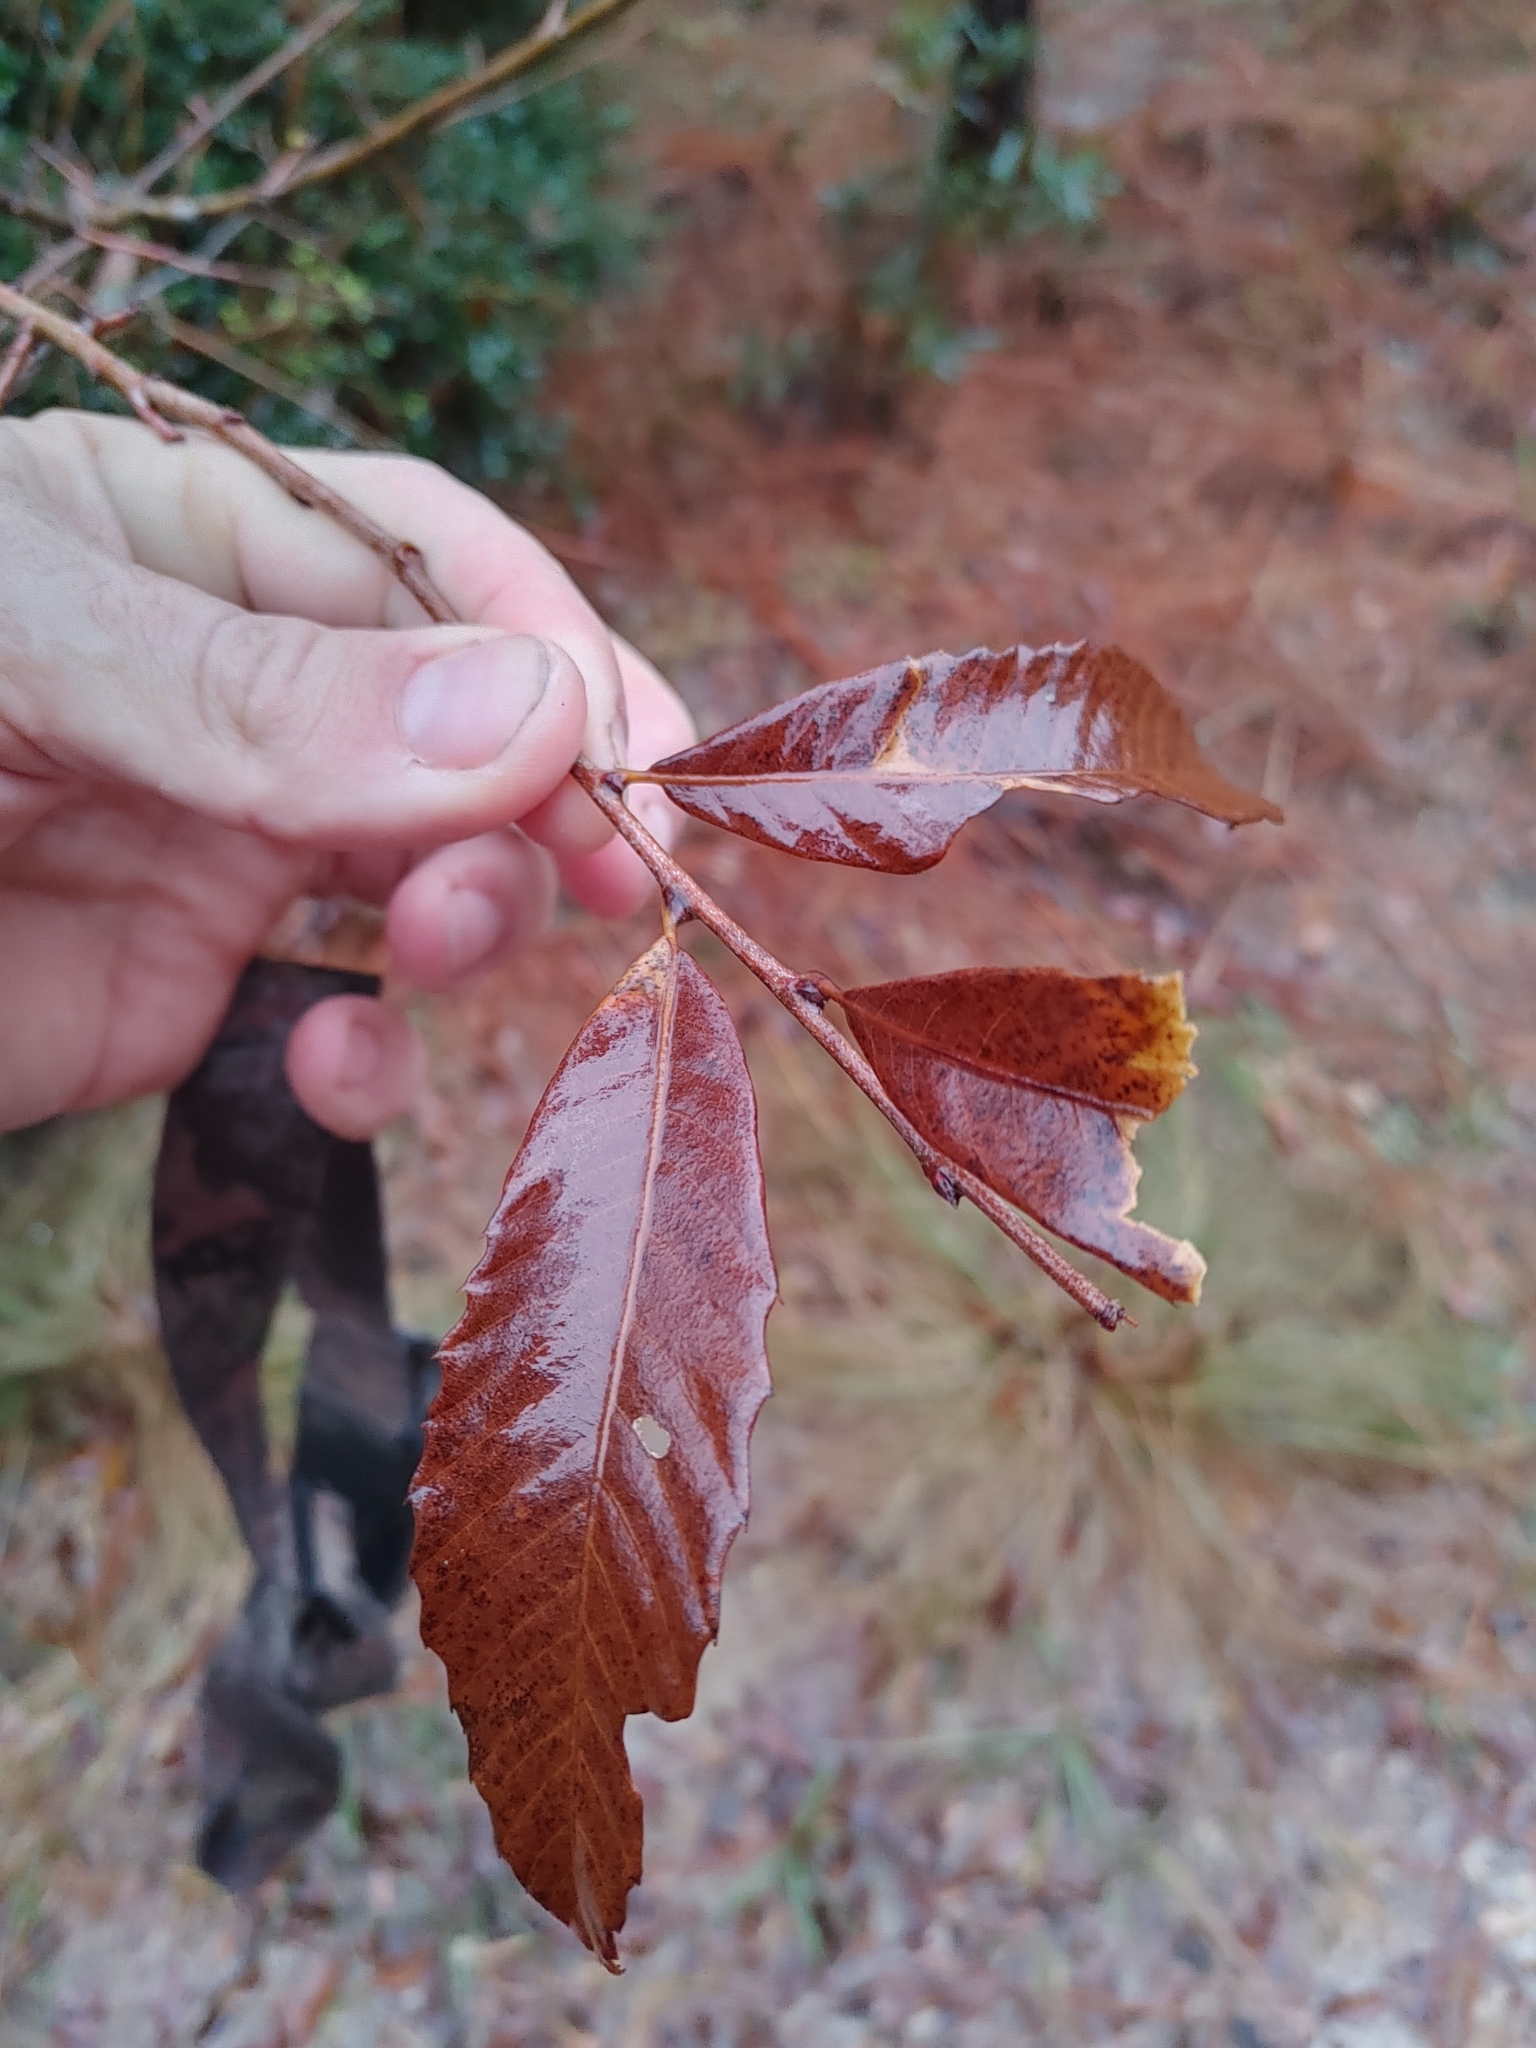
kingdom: Plantae
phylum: Tracheophyta
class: Magnoliopsida
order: Fagales
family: Fagaceae
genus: Castanea
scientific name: Castanea pumila
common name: Chinkapin
